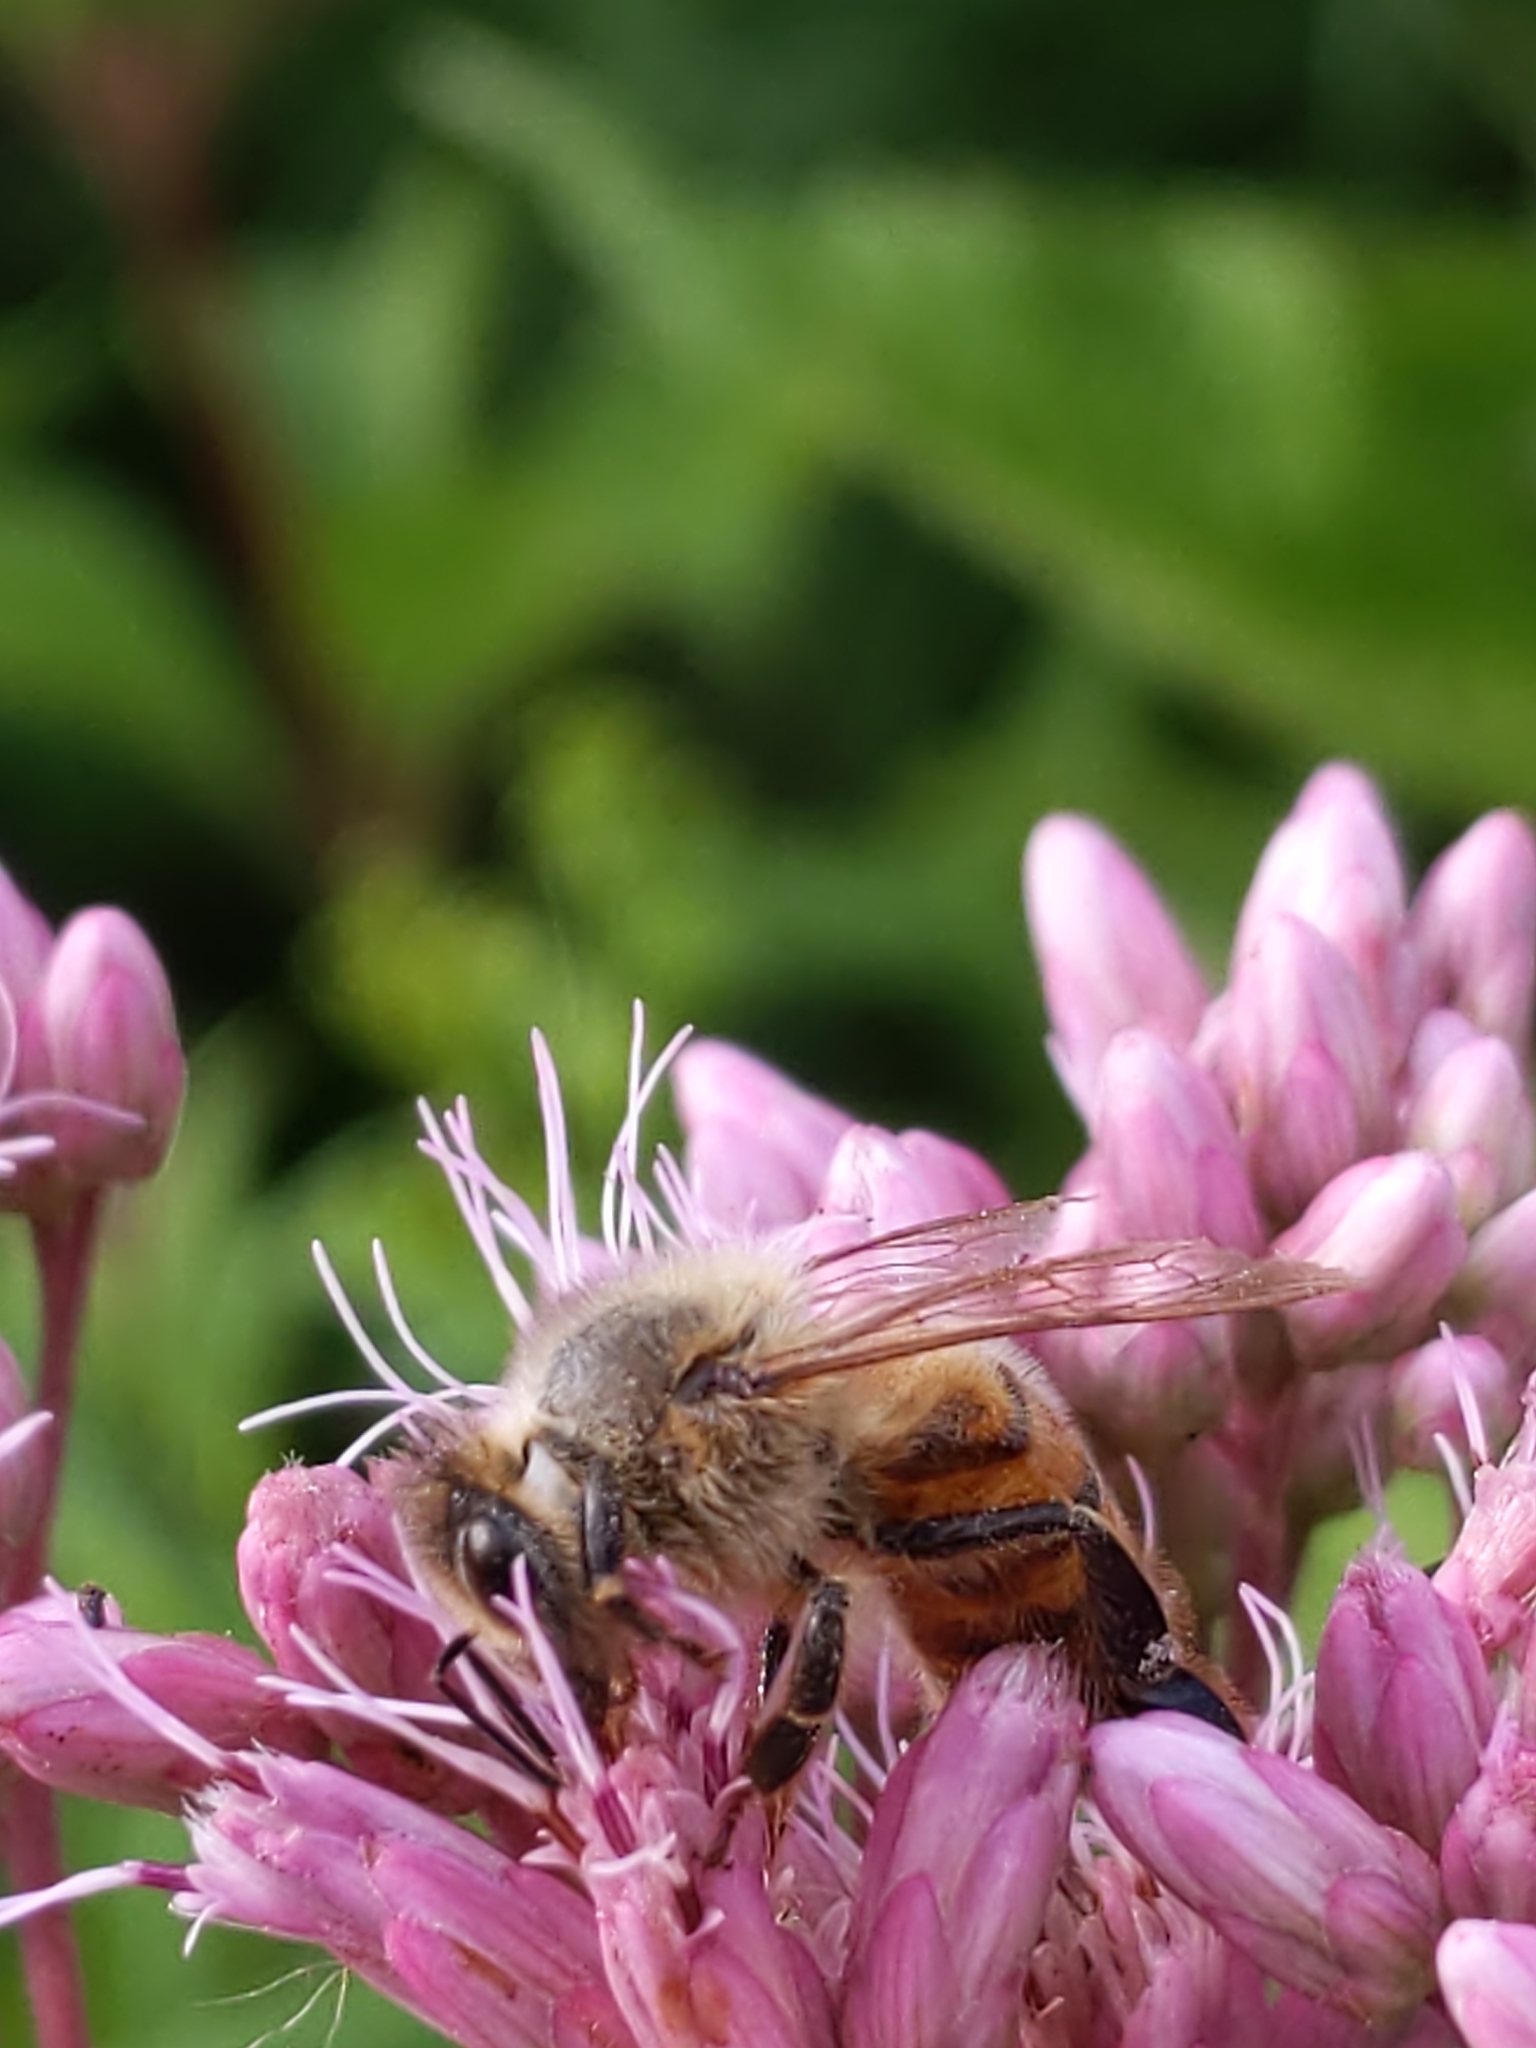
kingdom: Animalia
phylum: Arthropoda
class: Insecta
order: Hymenoptera
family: Apidae
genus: Apis
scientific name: Apis mellifera
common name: Honey bee
